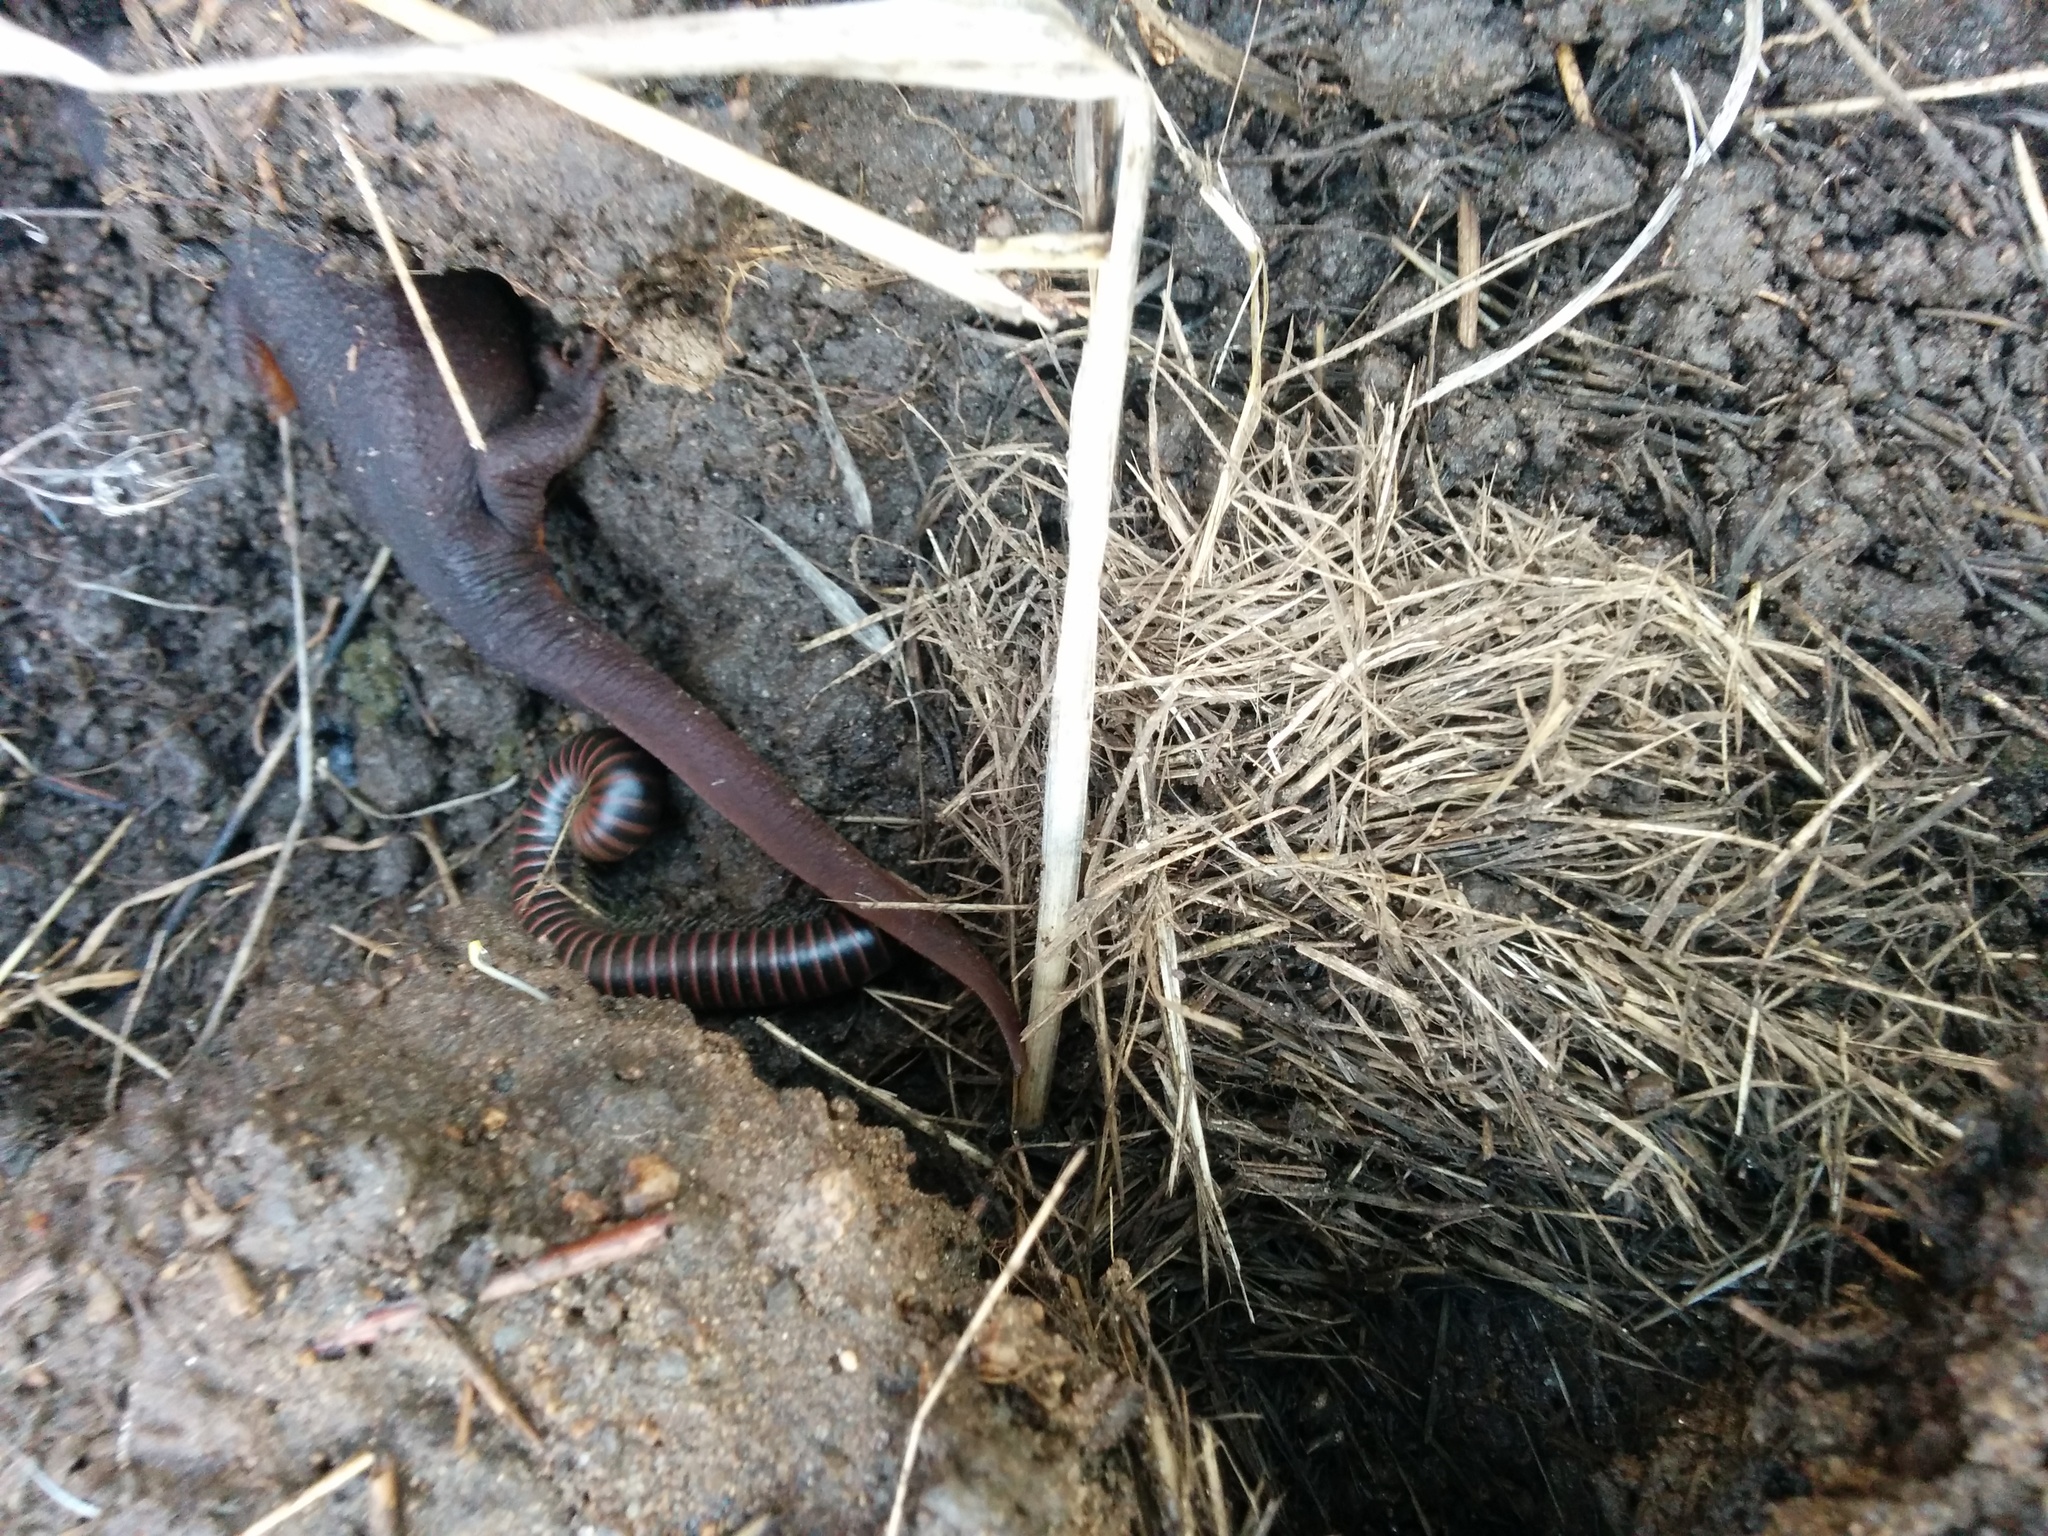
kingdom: Animalia
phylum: Chordata
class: Amphibia
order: Caudata
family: Salamandridae
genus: Taricha
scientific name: Taricha torosa
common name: California newt
